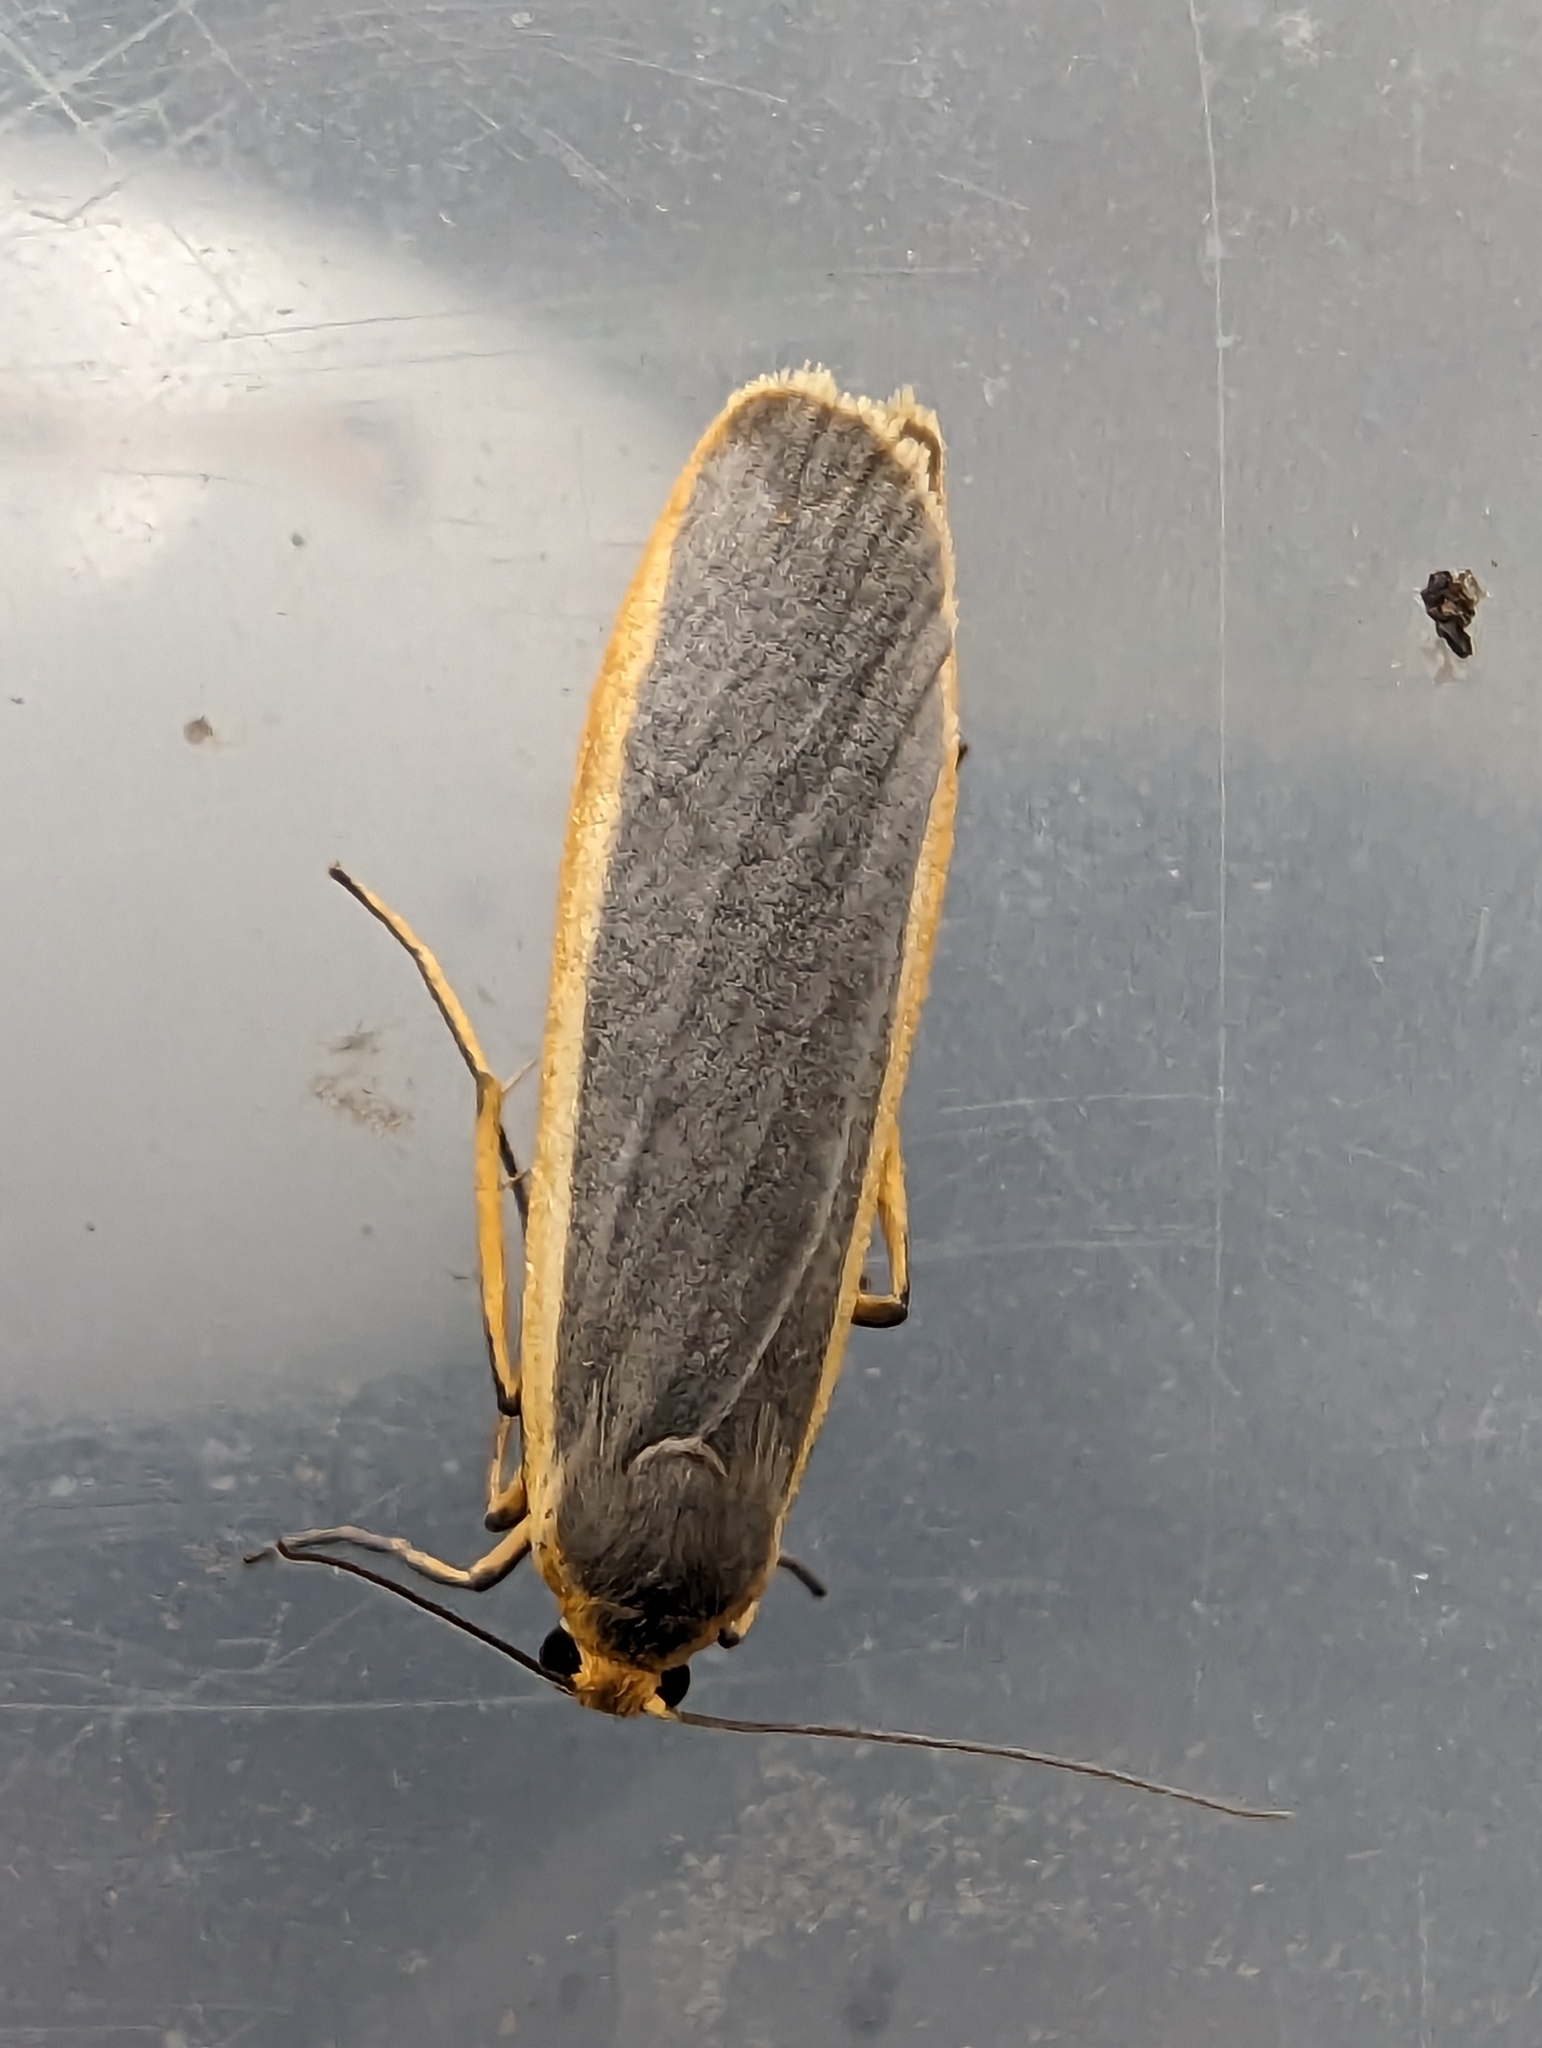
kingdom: Animalia
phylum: Arthropoda
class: Insecta
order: Lepidoptera
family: Erebidae
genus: Nyea
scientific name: Nyea lurideola
